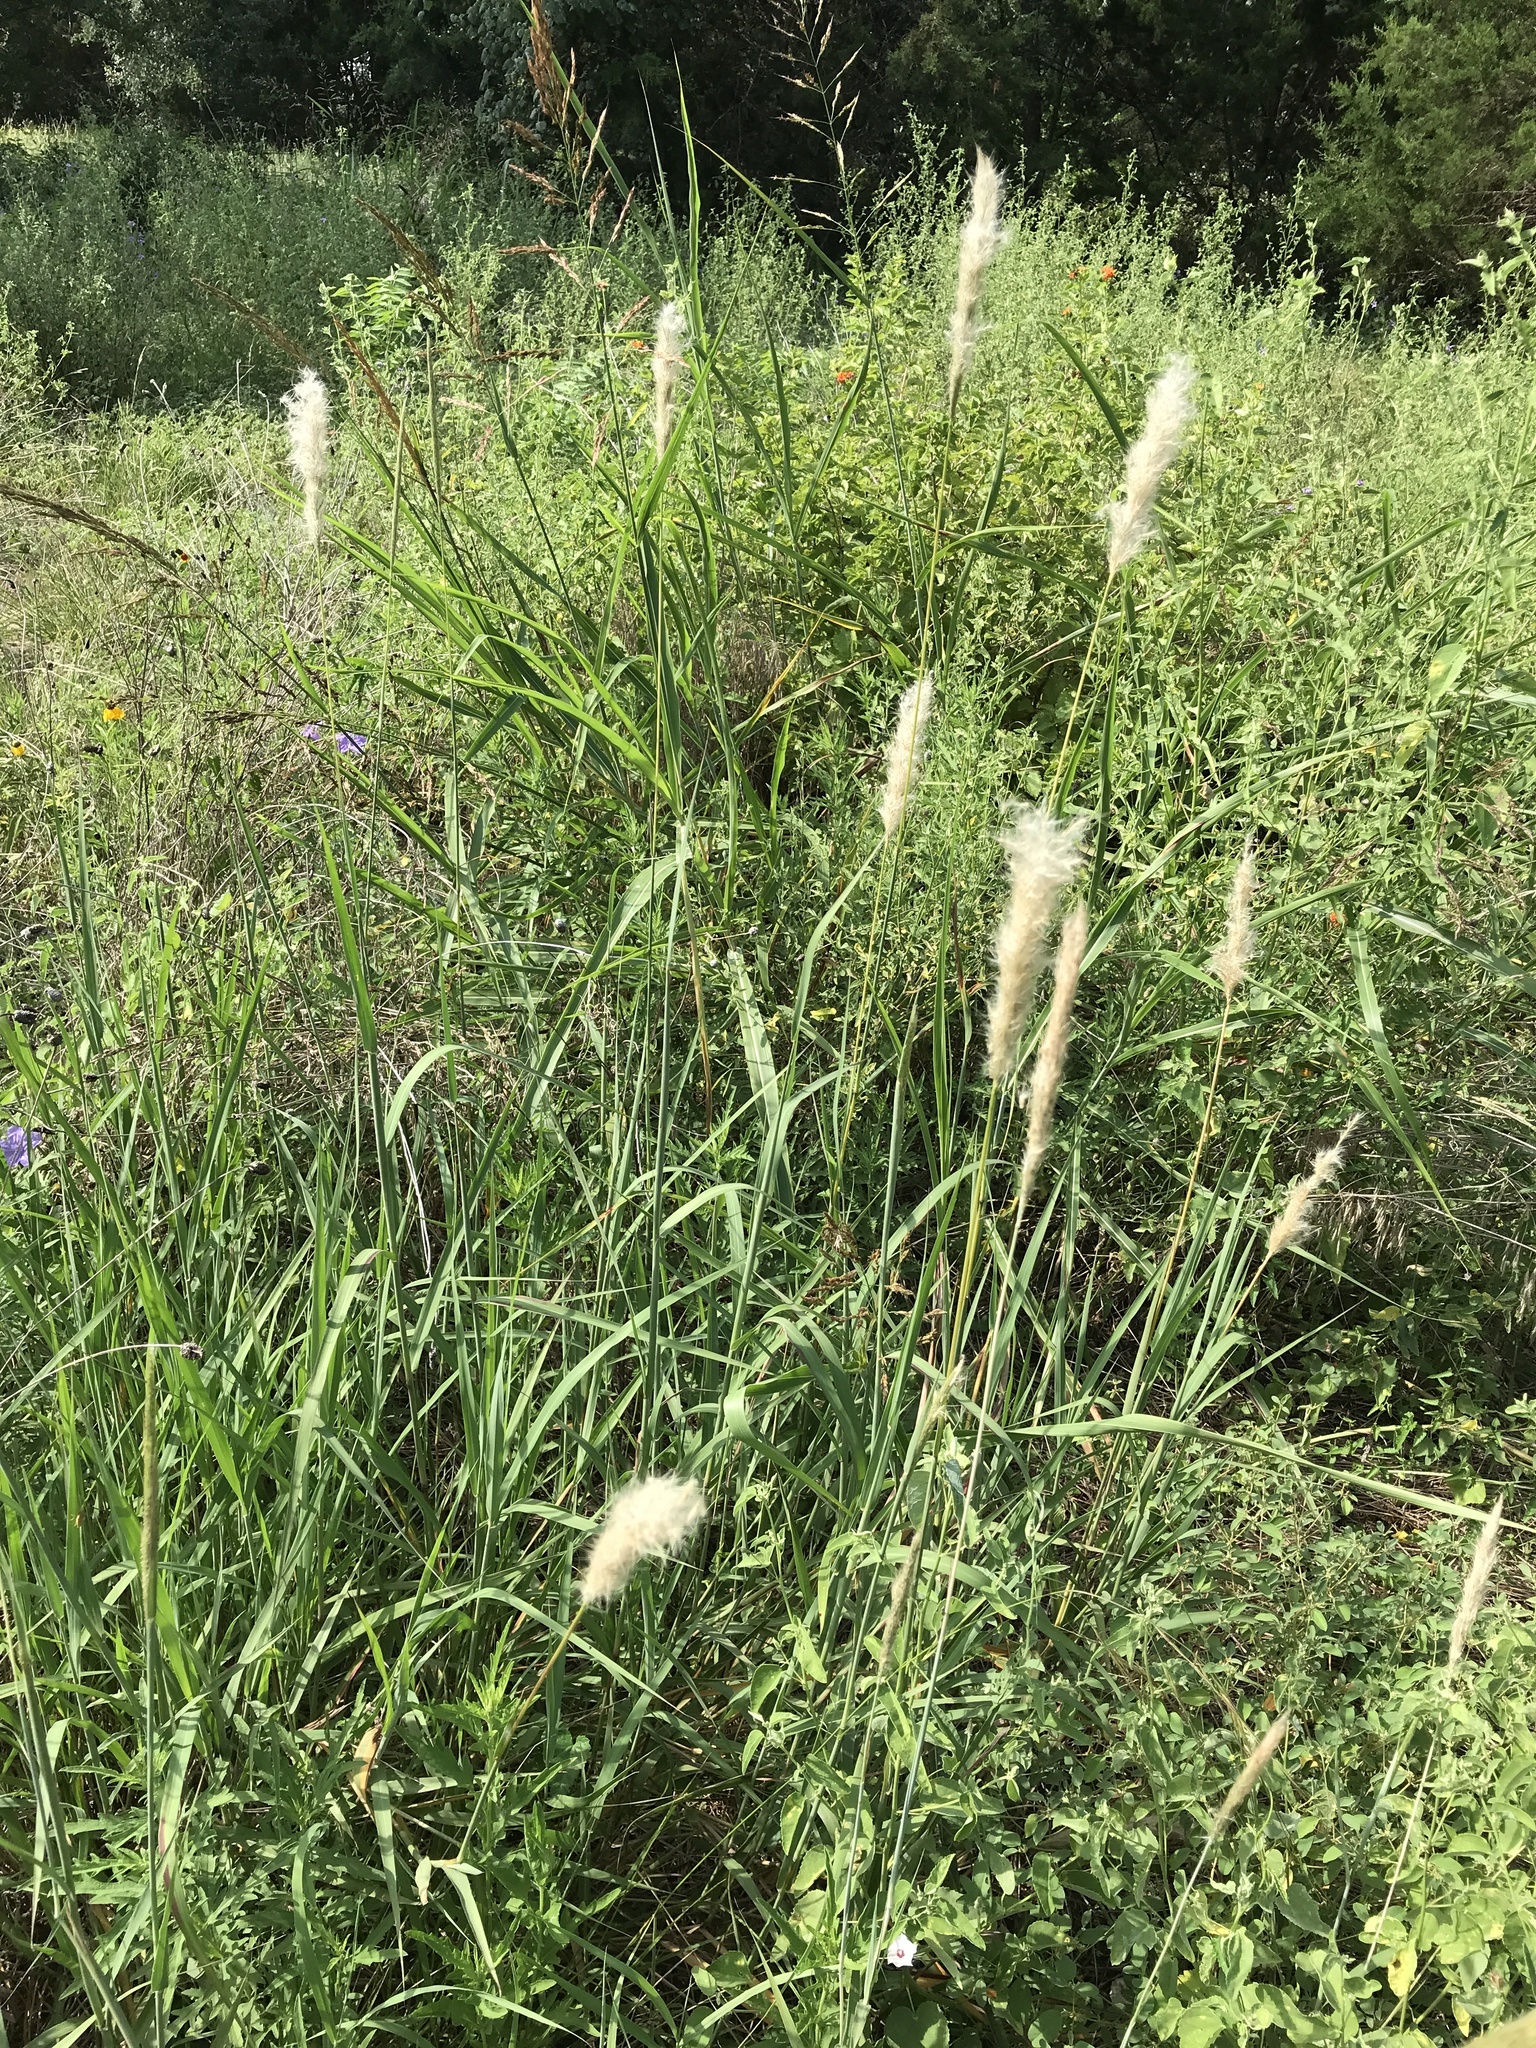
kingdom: Plantae
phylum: Tracheophyta
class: Liliopsida
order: Poales
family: Poaceae
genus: Bothriochloa
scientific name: Bothriochloa torreyana
